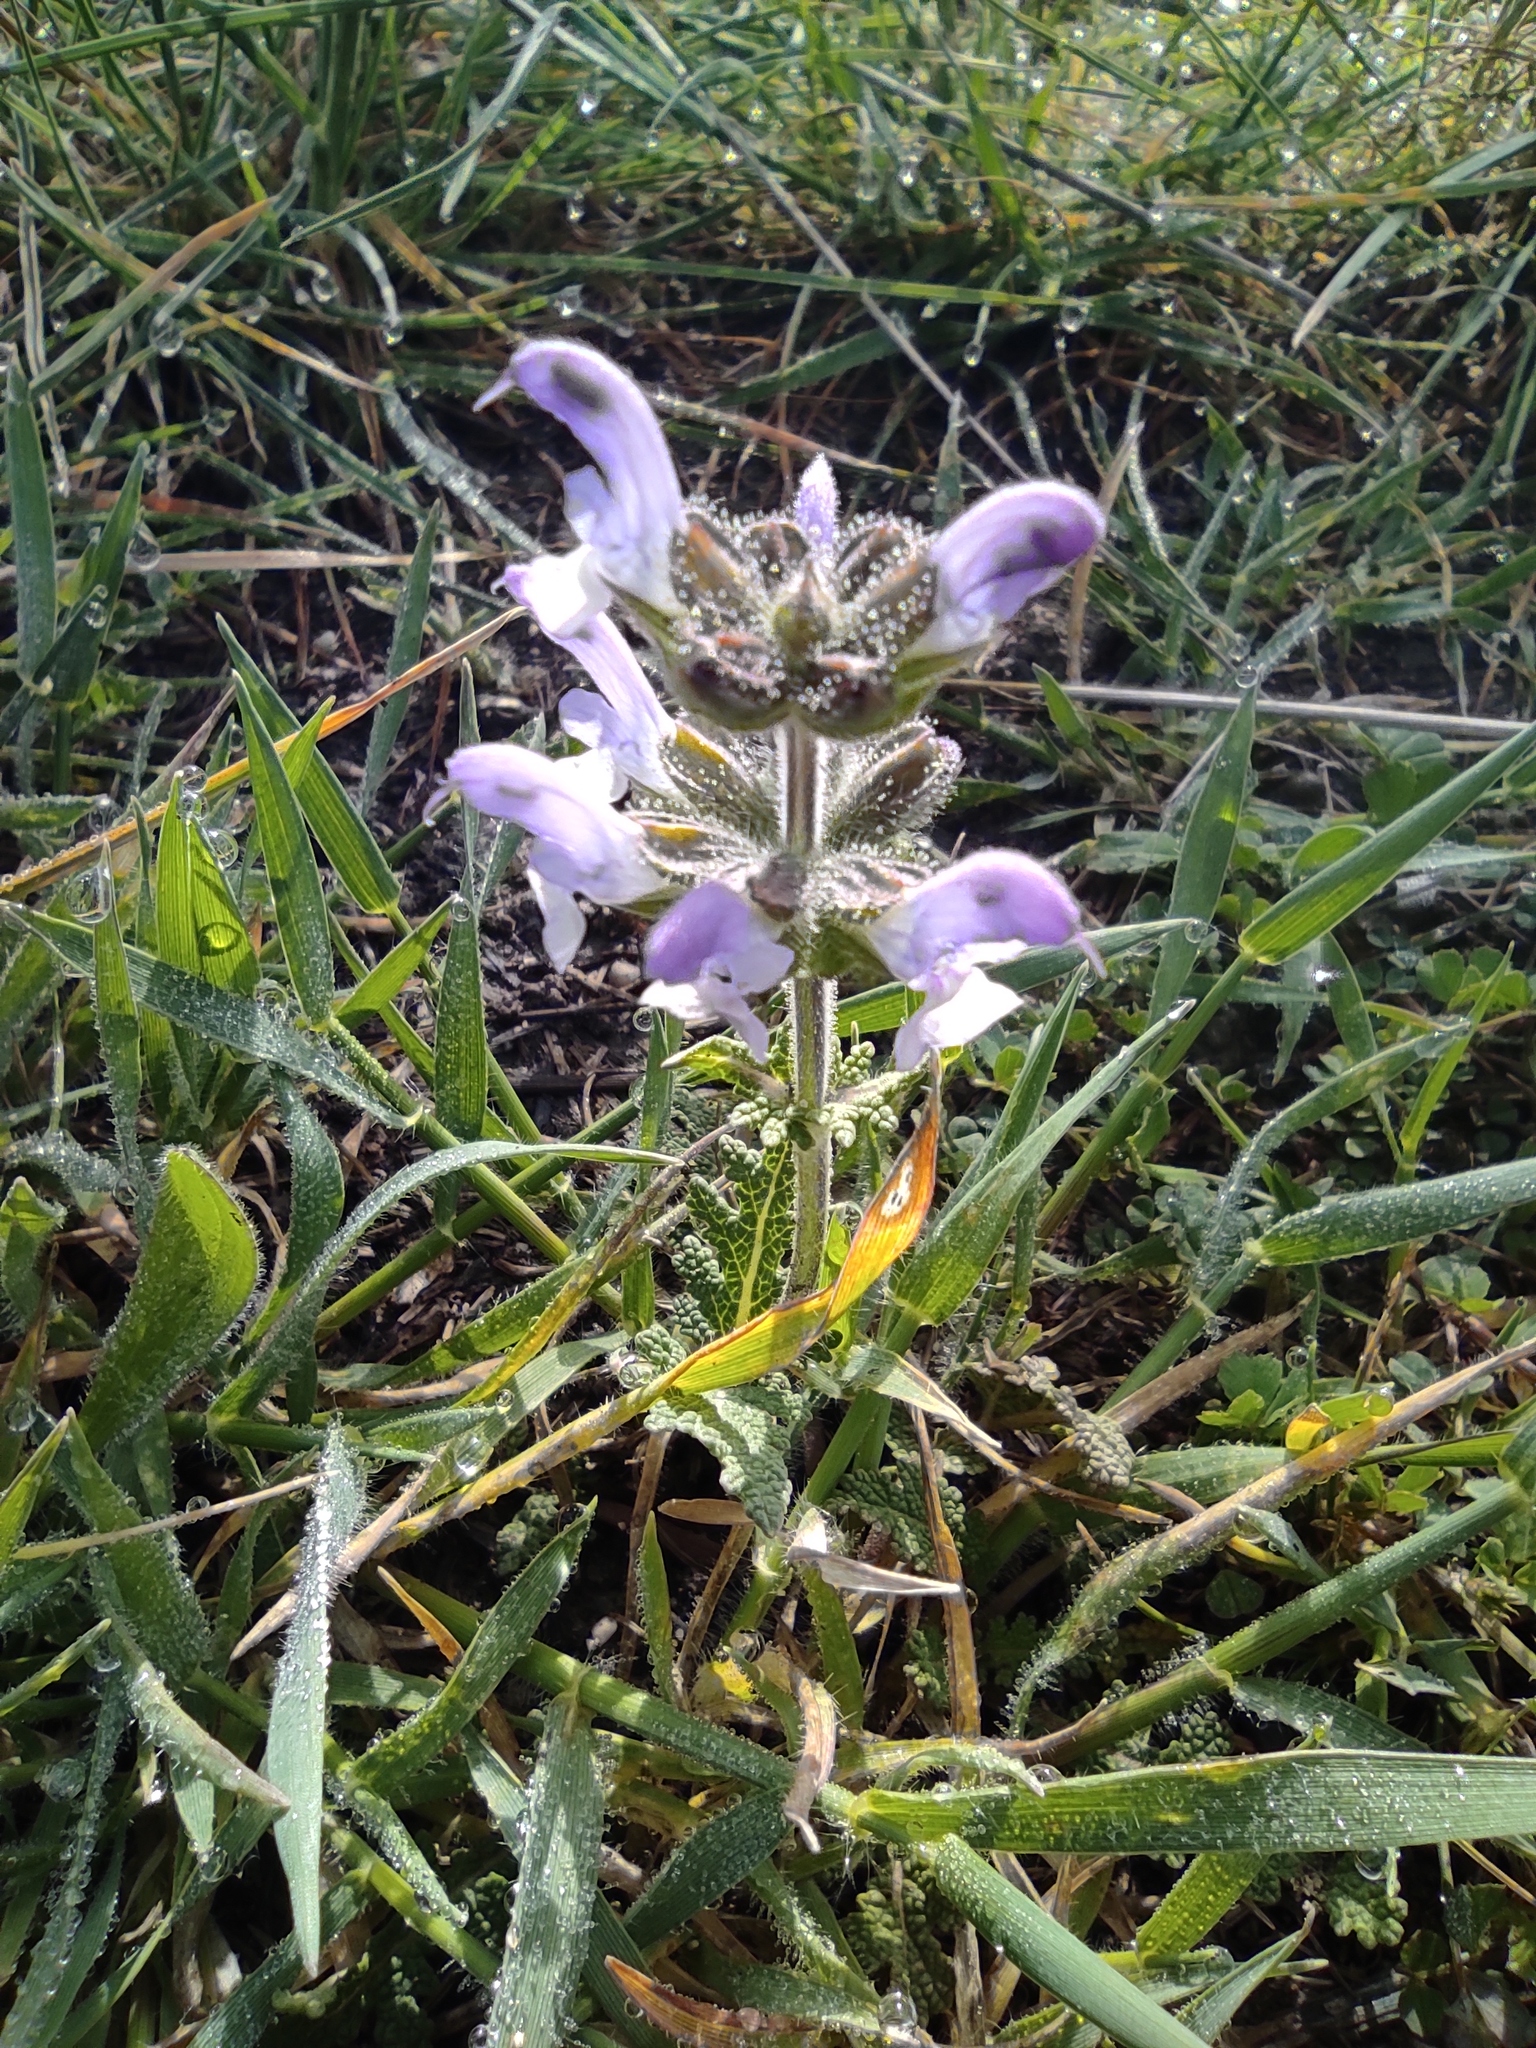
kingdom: Plantae
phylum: Tracheophyta
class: Magnoliopsida
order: Lamiales
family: Lamiaceae
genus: Salvia
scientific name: Salvia verbenaca
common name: Wild clary
